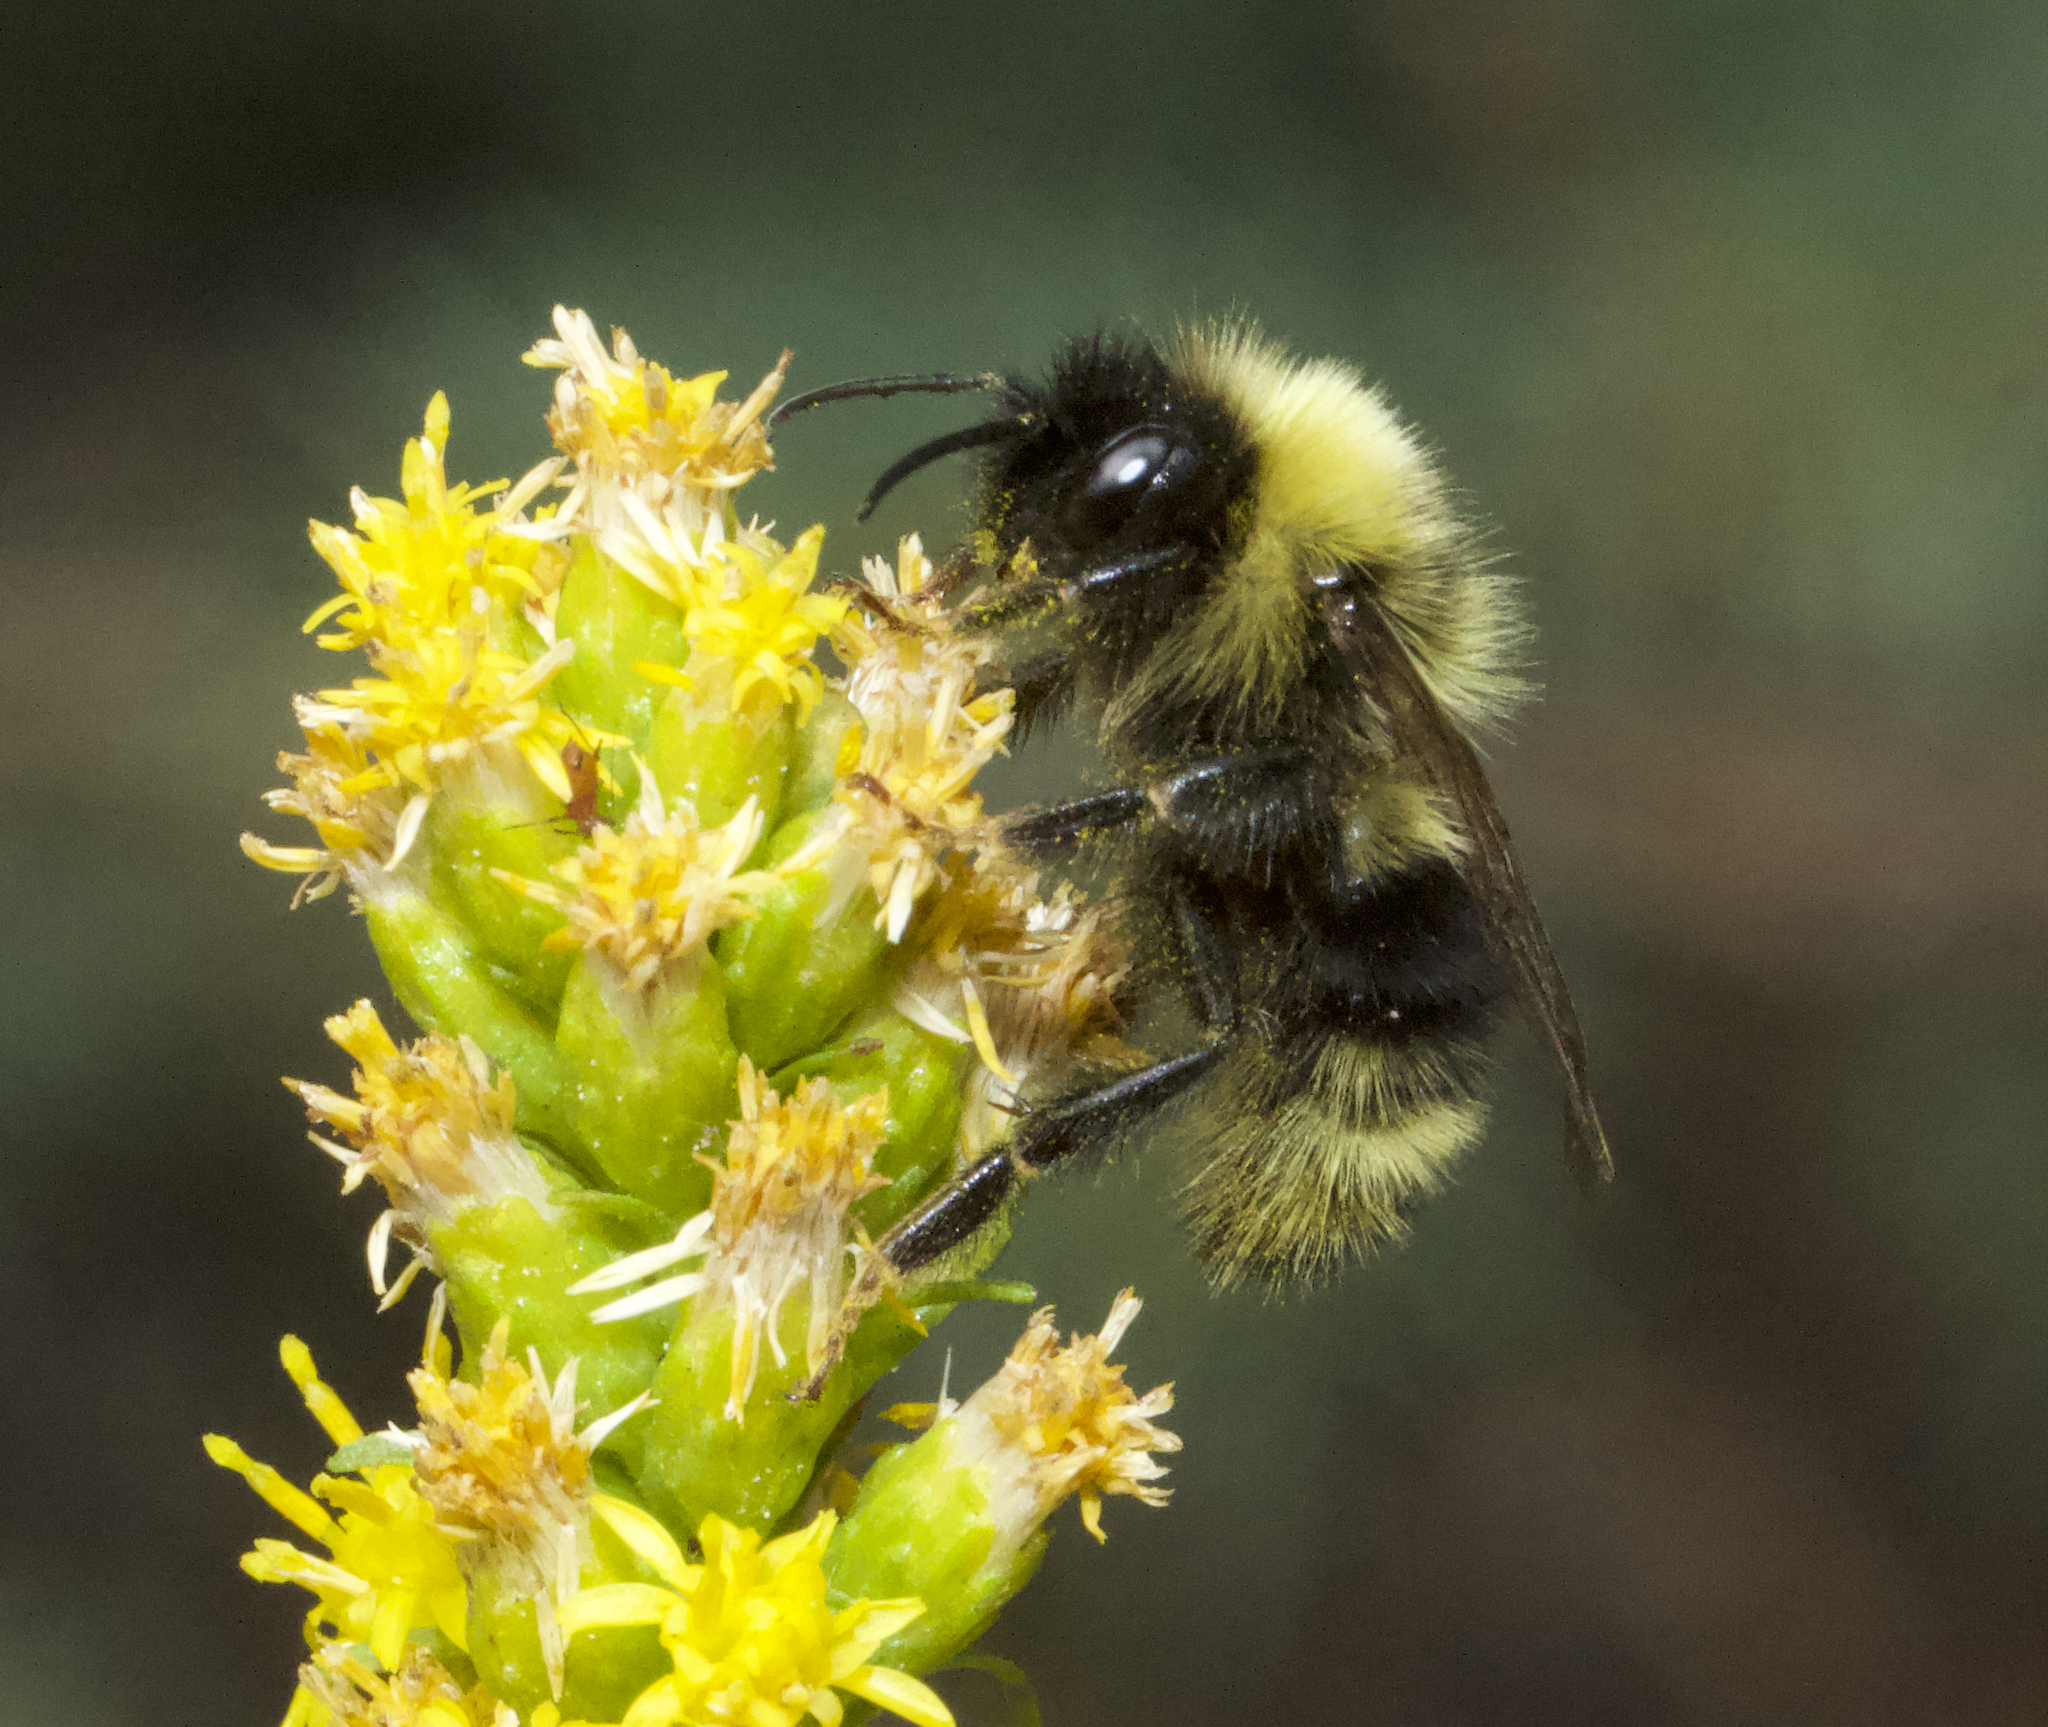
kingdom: Animalia
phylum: Arthropoda
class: Insecta
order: Hymenoptera
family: Apidae
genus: Bombus
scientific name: Bombus ashtoni
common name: Ashton's cuckoo bumble bee
